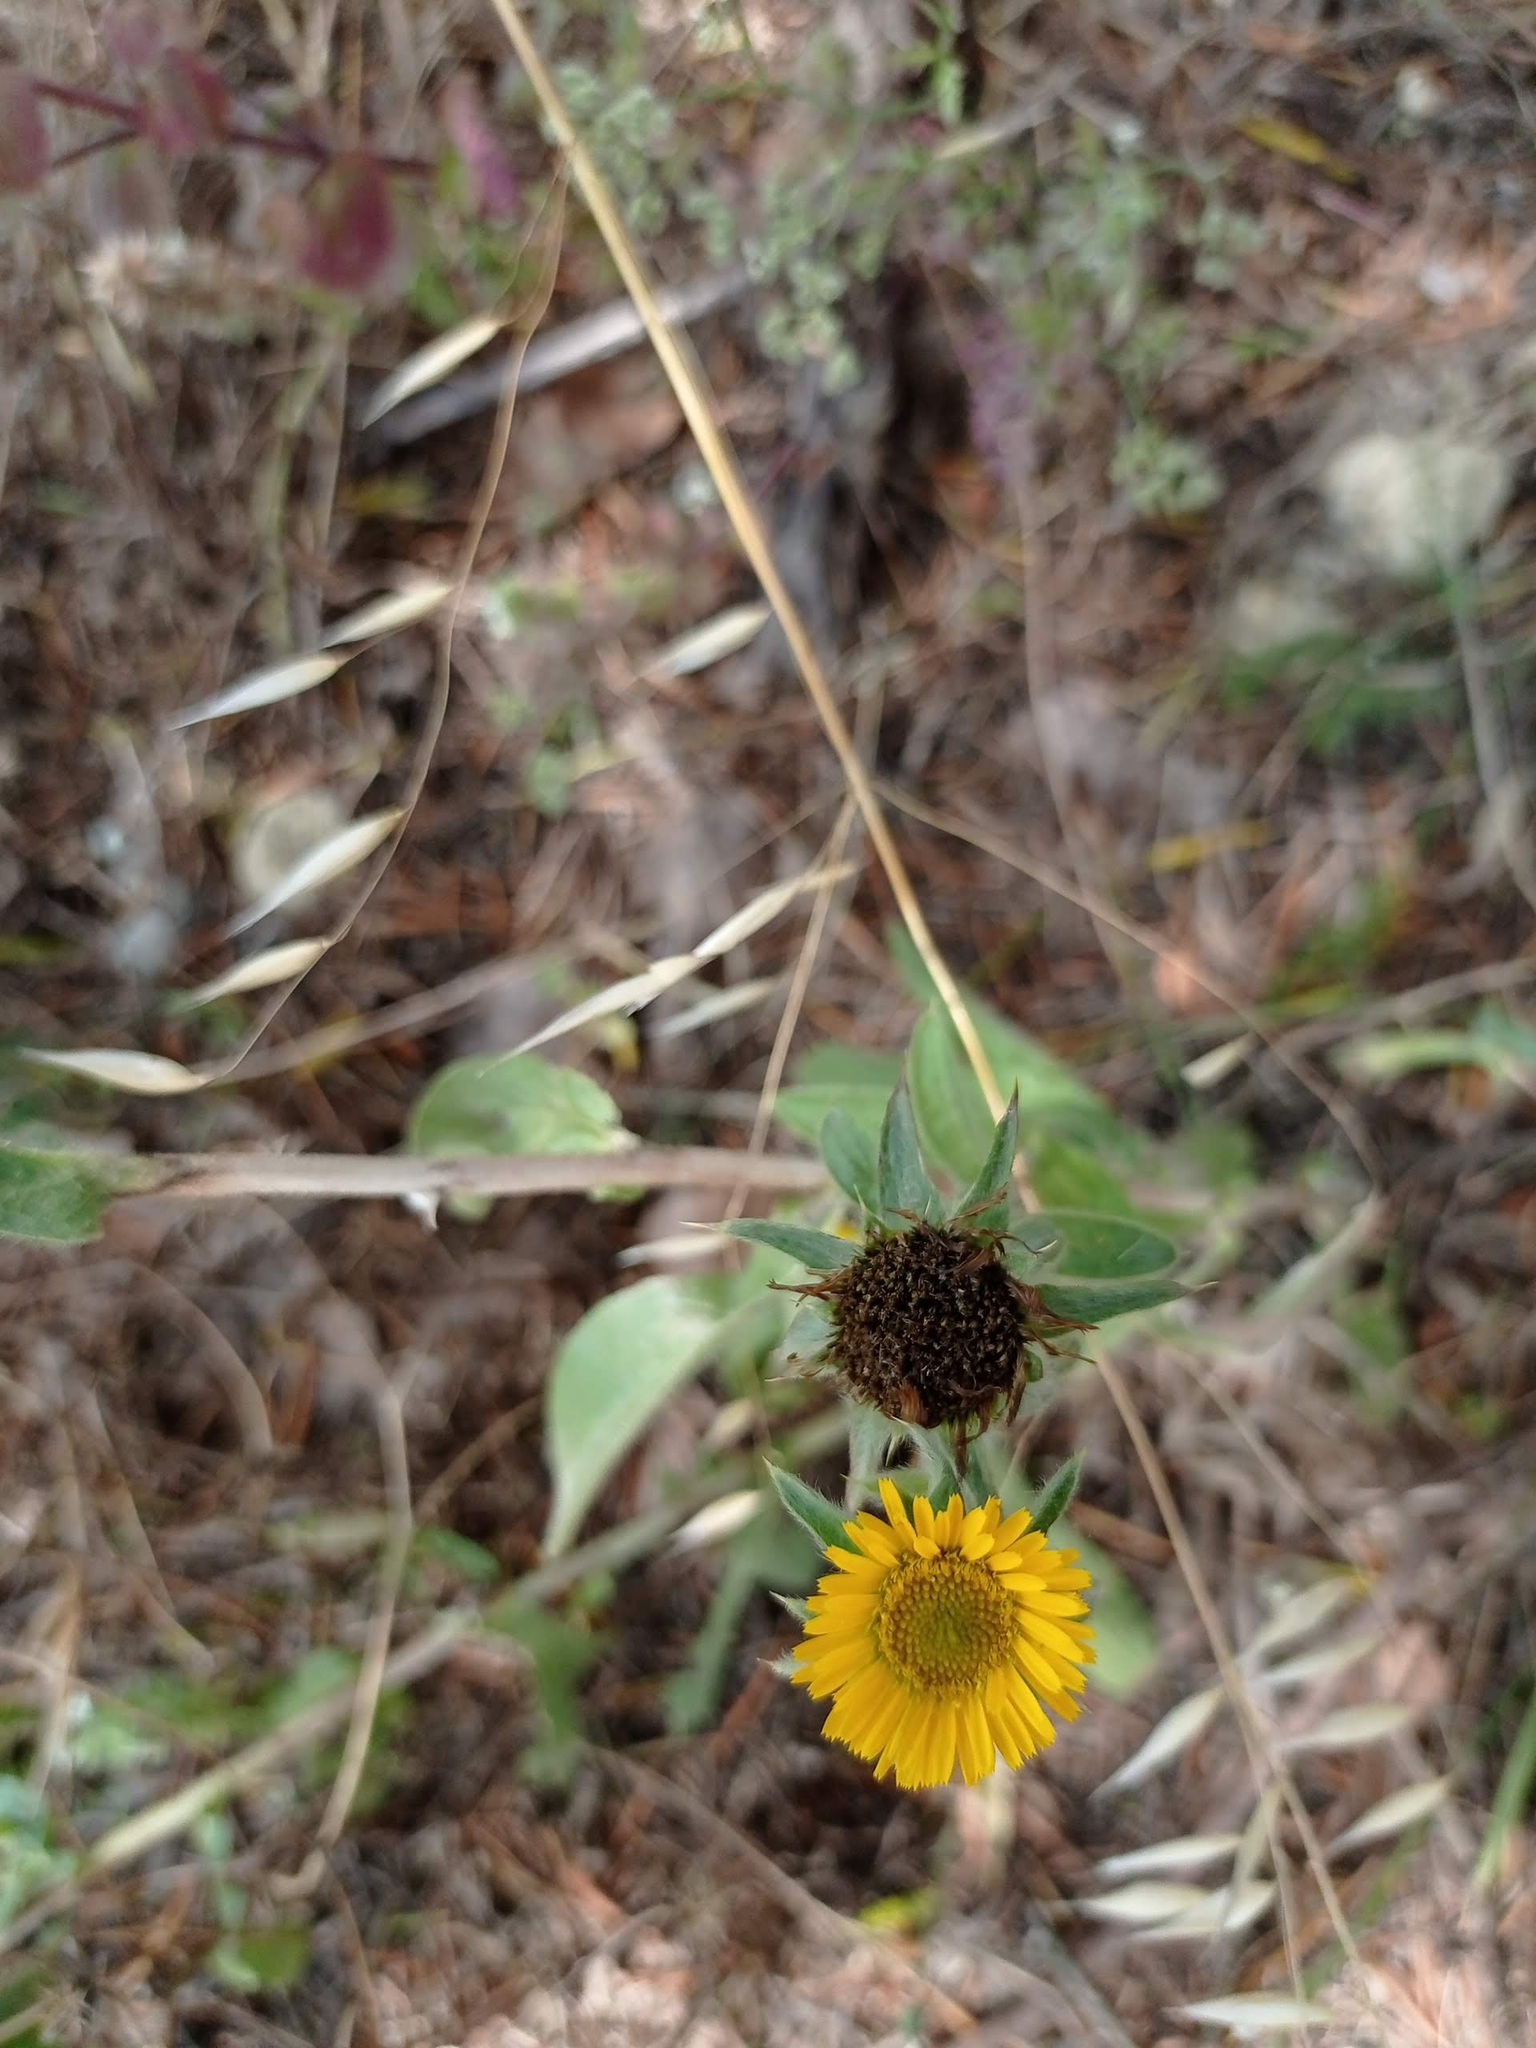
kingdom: Plantae
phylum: Tracheophyta
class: Magnoliopsida
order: Asterales
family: Asteraceae
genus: Pallenis
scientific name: Pallenis spinosa
